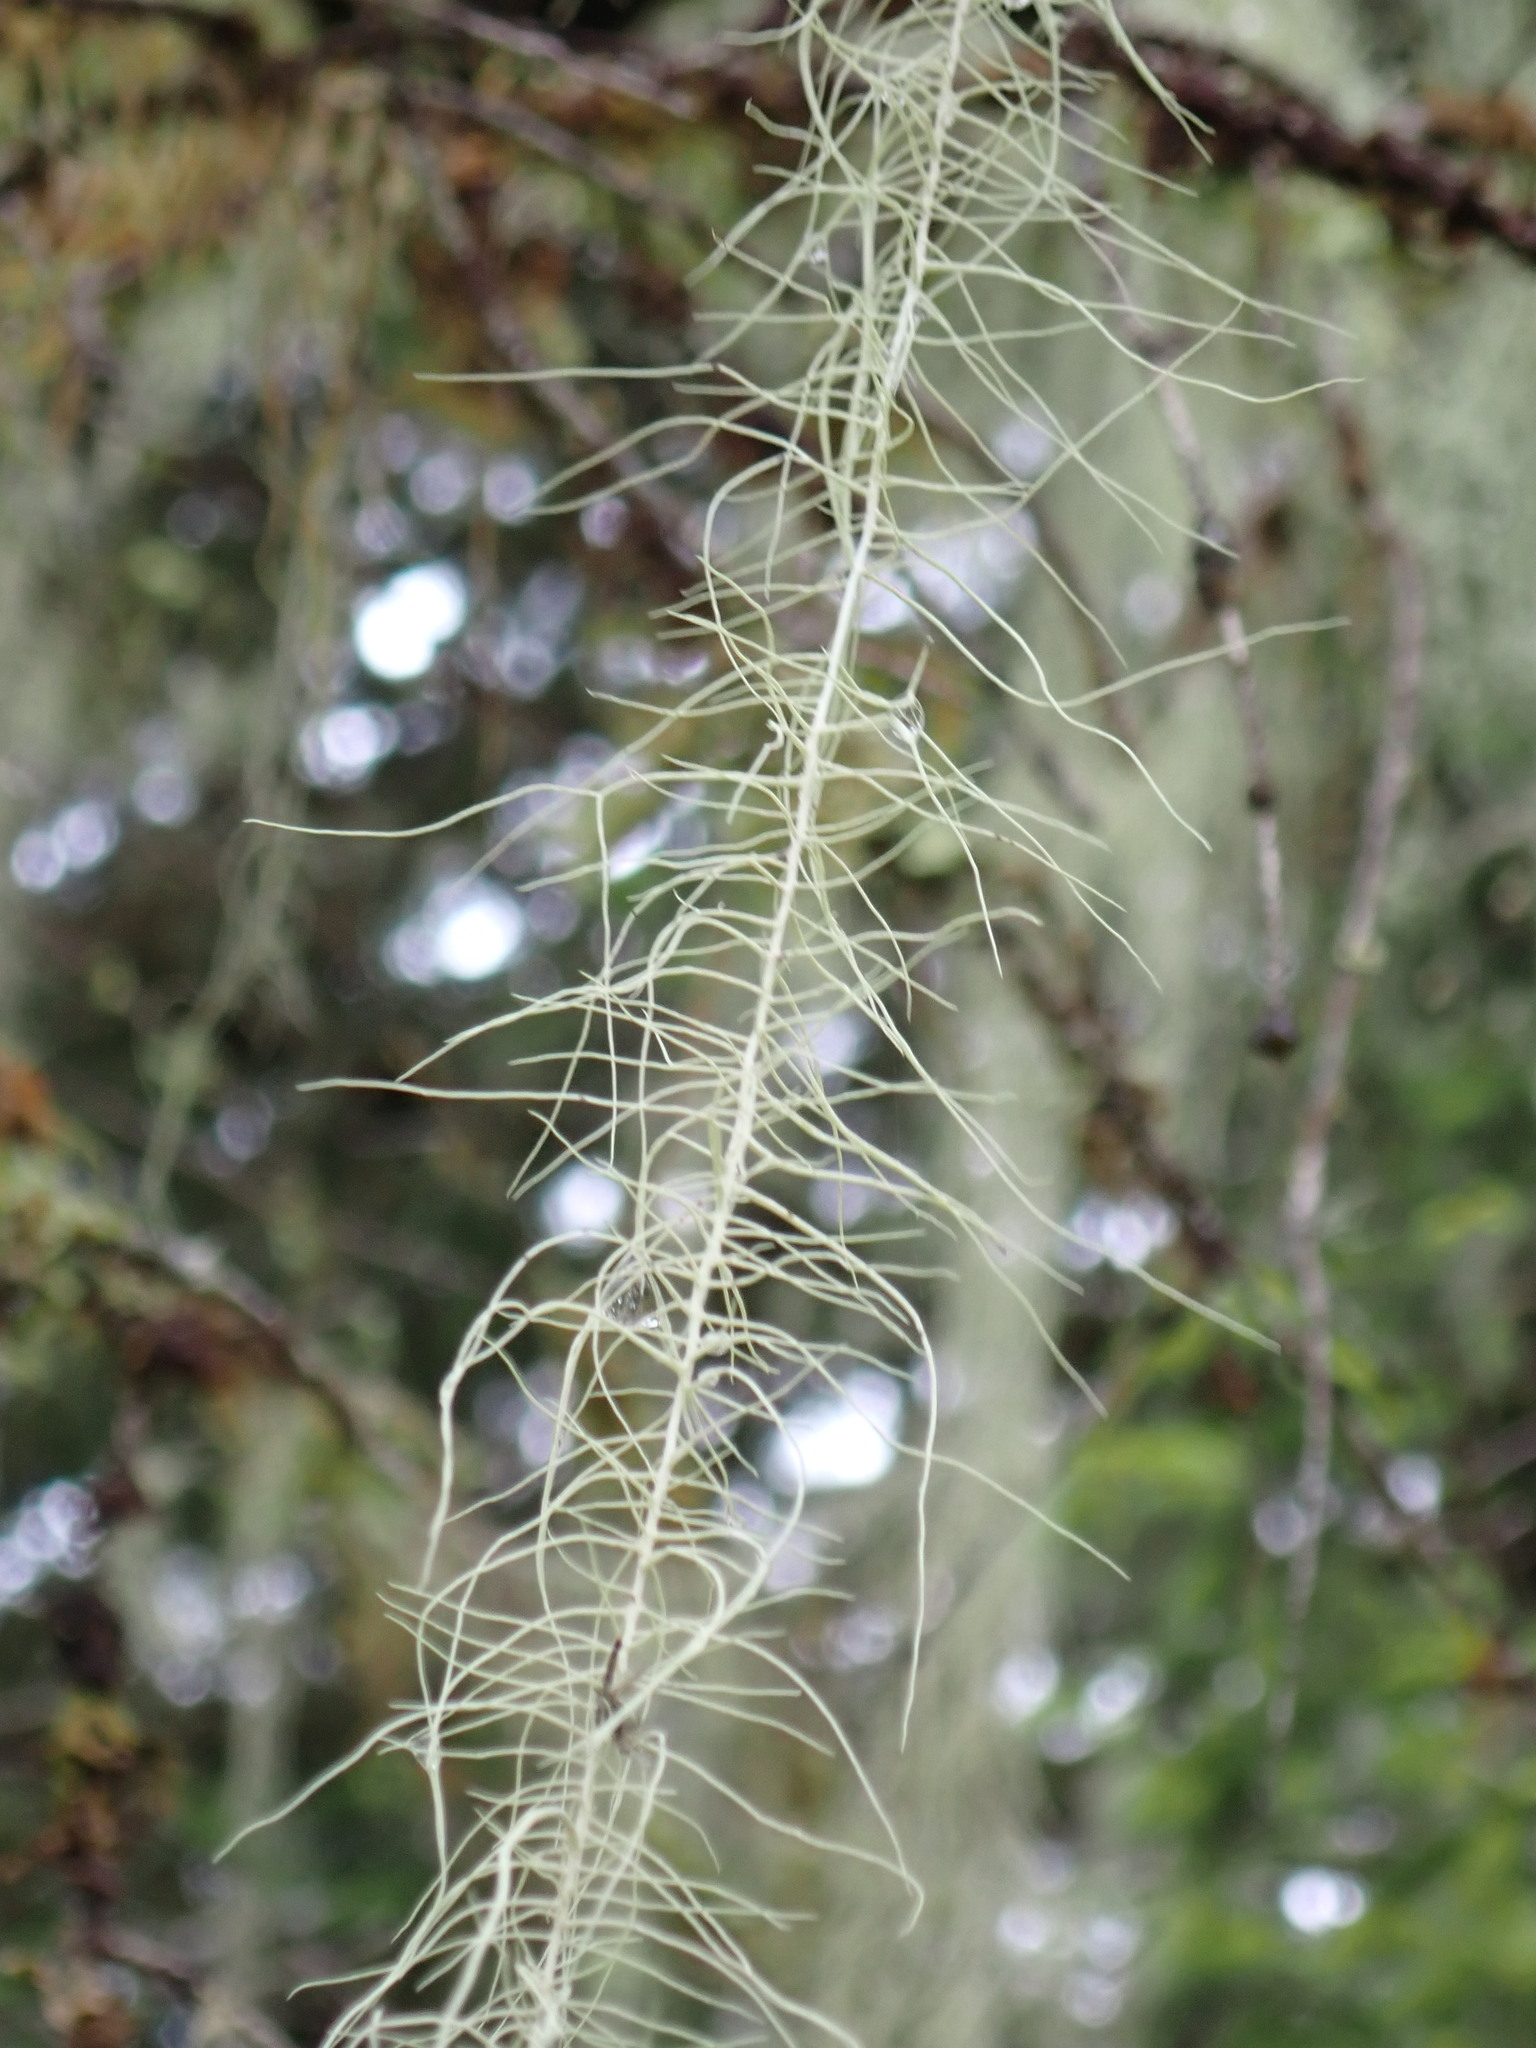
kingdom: Fungi
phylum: Ascomycota
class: Lecanoromycetes
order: Lecanorales
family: Parmeliaceae
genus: Dolichousnea
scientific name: Dolichousnea longissima
